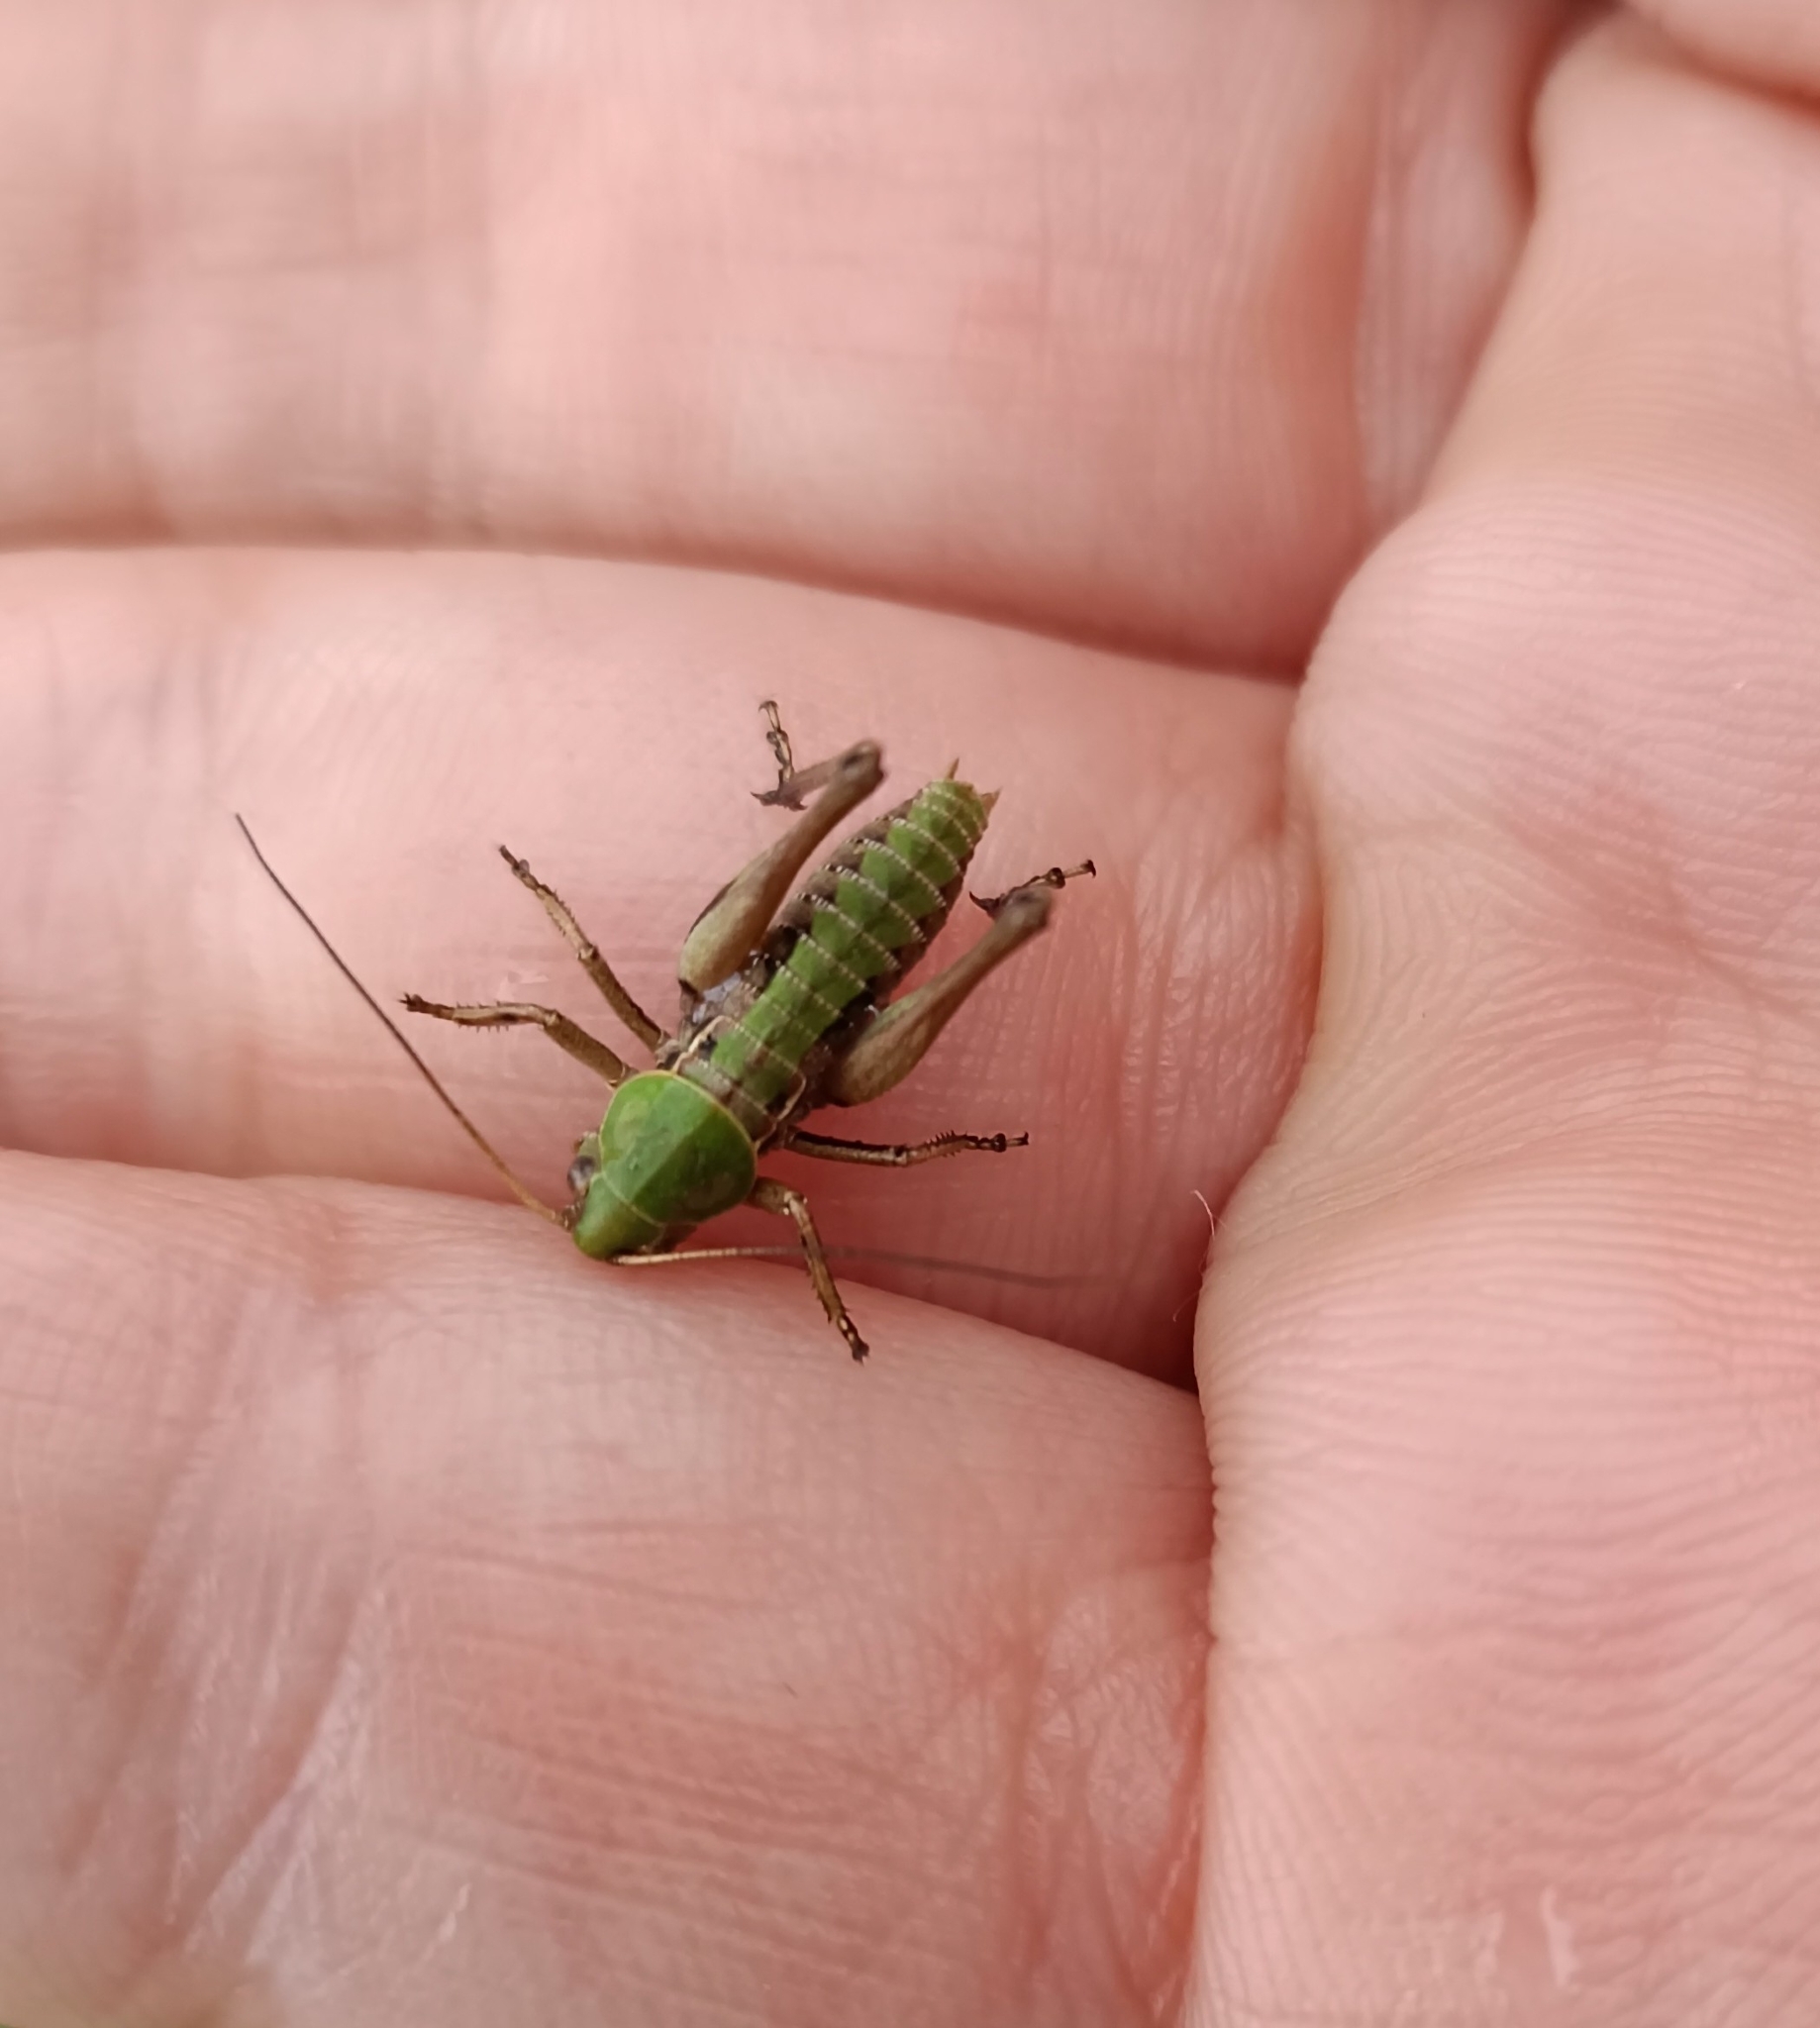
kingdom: Animalia
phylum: Arthropoda
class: Insecta
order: Orthoptera
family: Tettigoniidae
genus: Decticus
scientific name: Decticus verrucivorus
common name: Wart-biter
